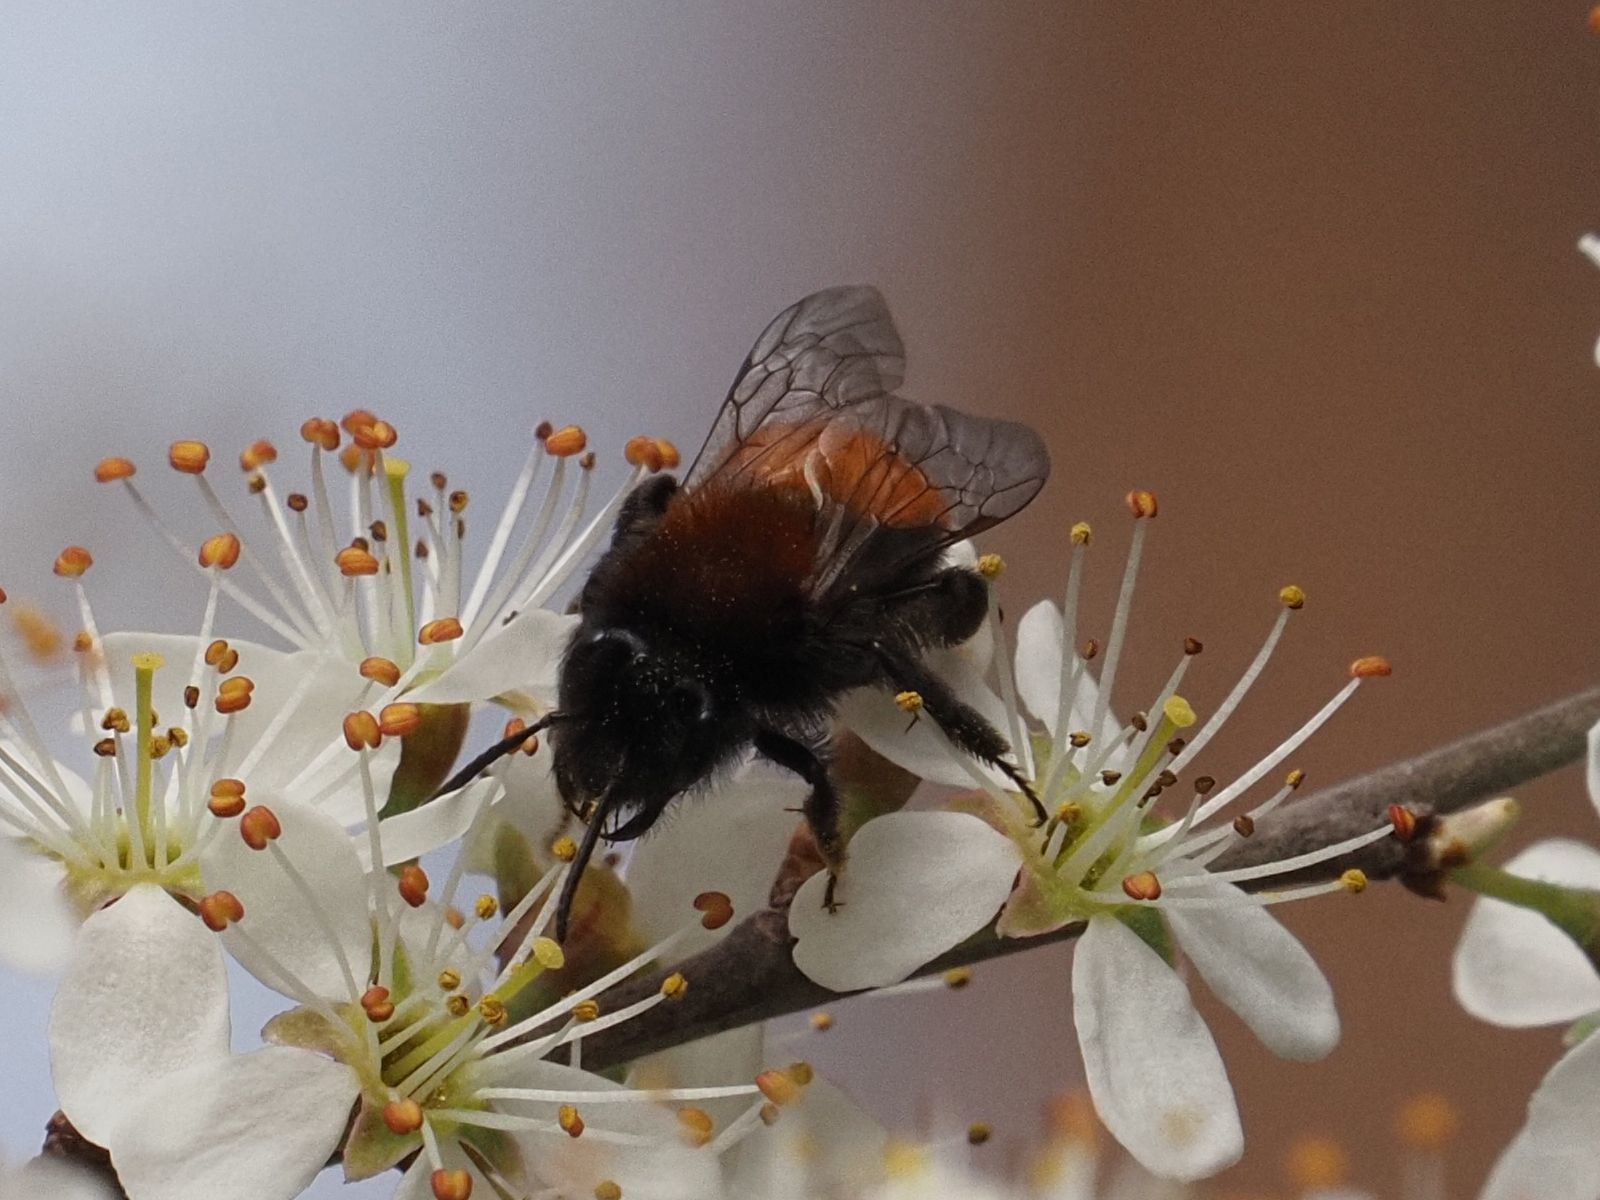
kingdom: Animalia
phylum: Arthropoda
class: Insecta
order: Hymenoptera
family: Andrenidae
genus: Andrena
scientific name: Andrena fulva
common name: Tawny mining bee
